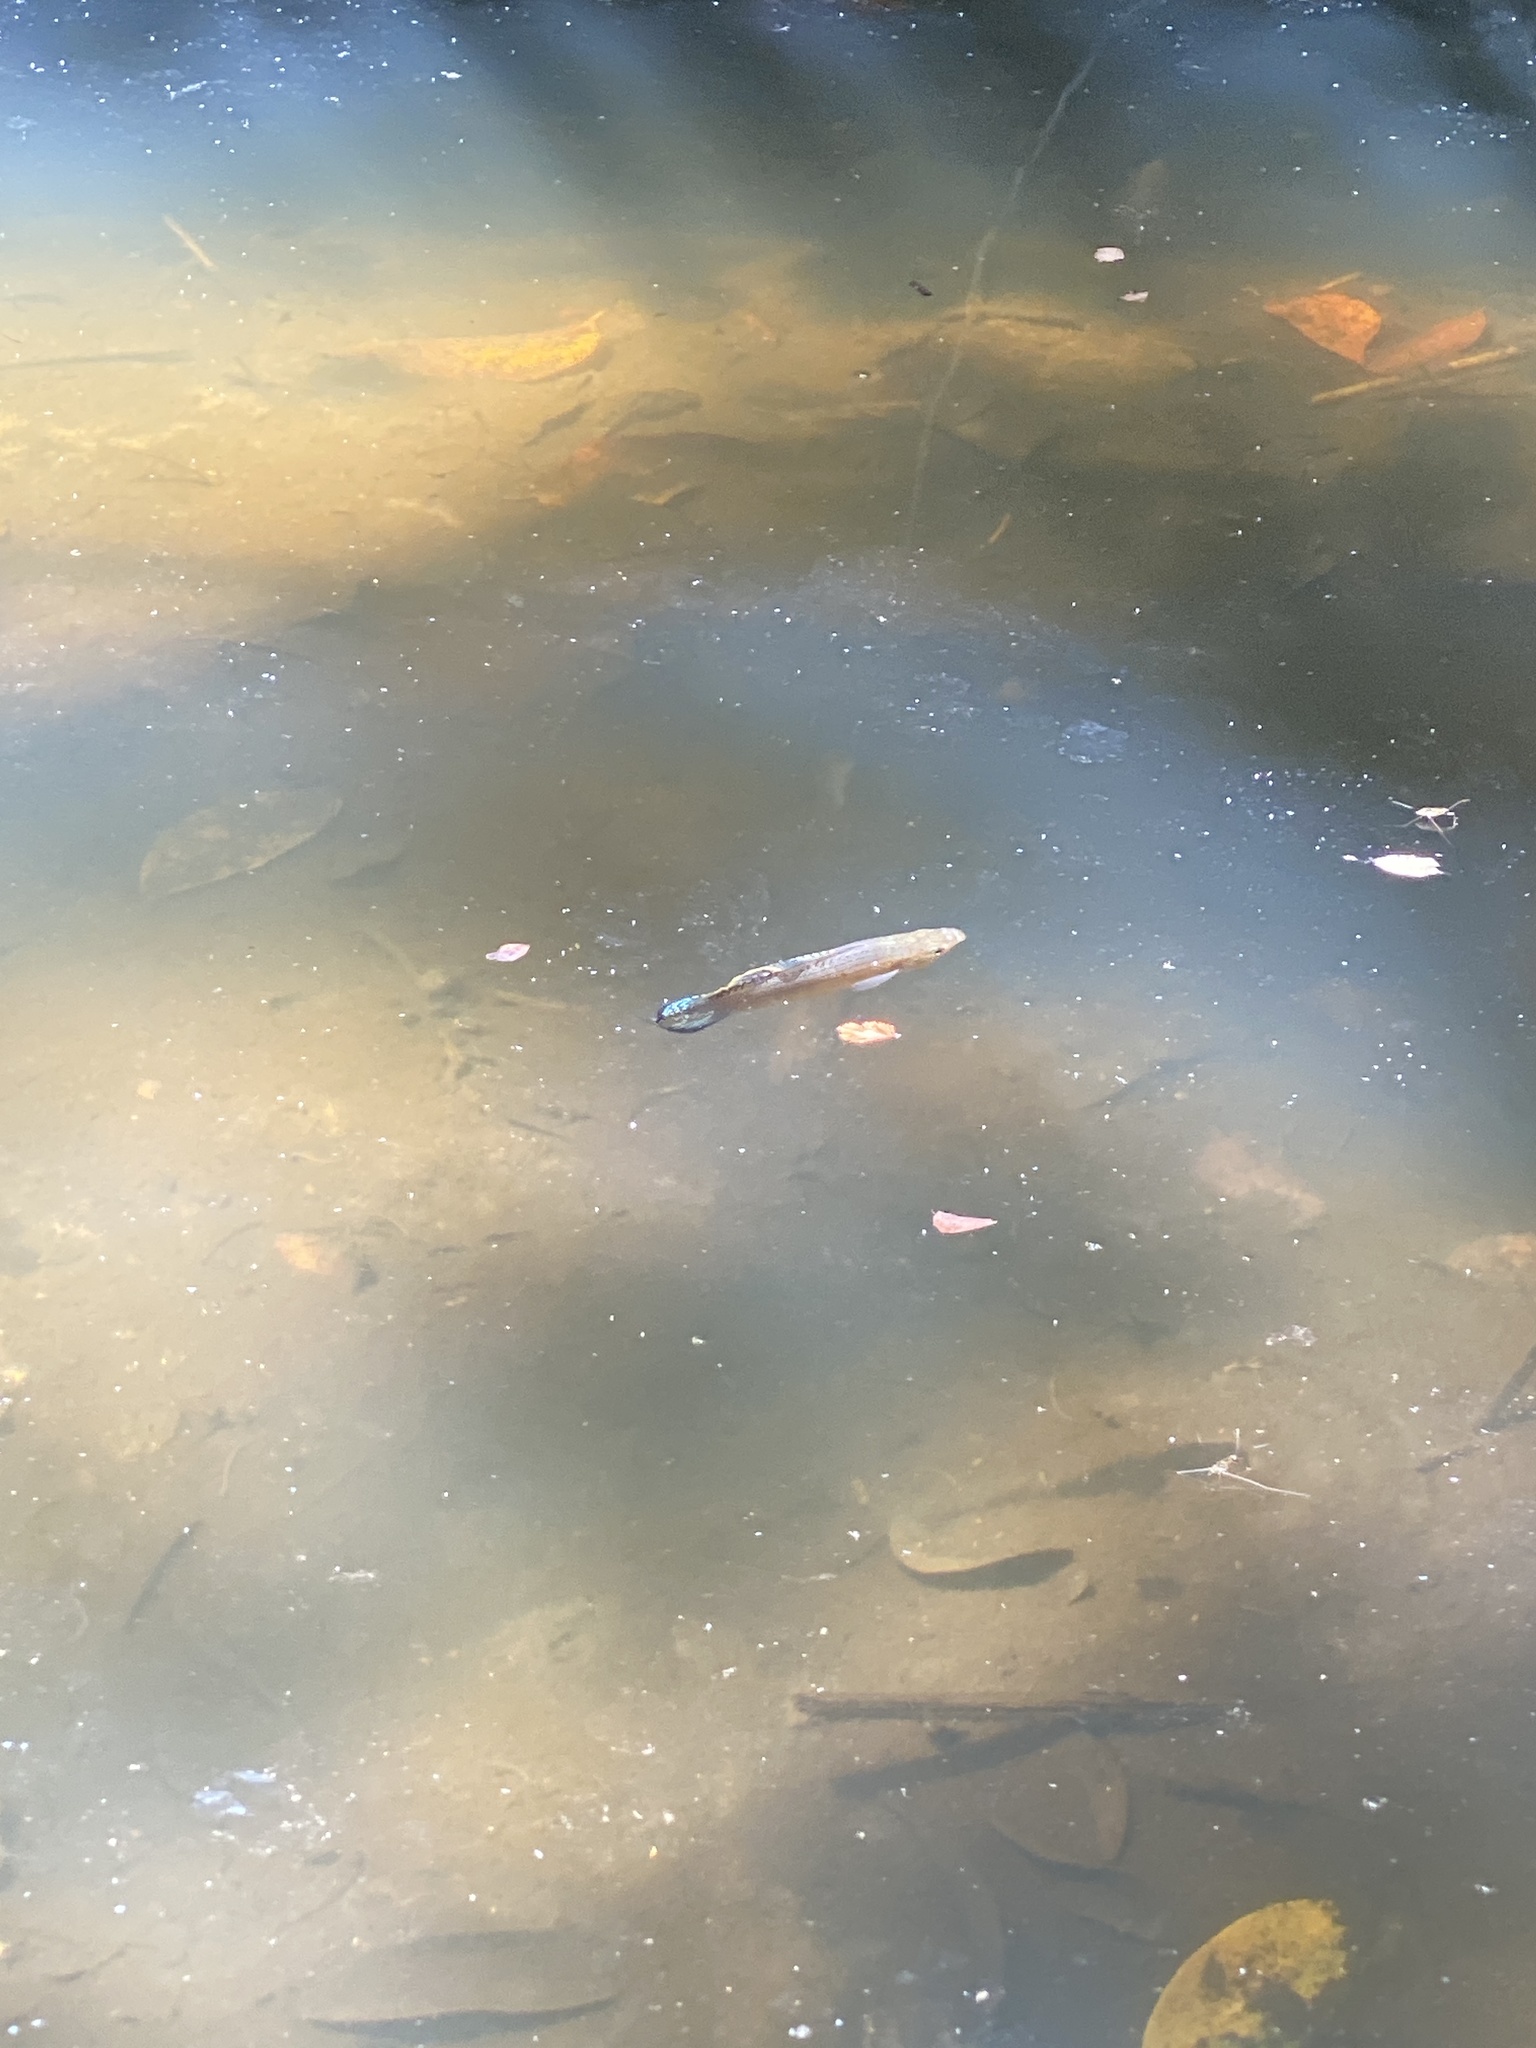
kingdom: Animalia
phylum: Chordata
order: Cyprinodontiformes
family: Poeciliidae
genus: Poecilia
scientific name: Poecilia latipinna
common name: Sailfin molly
